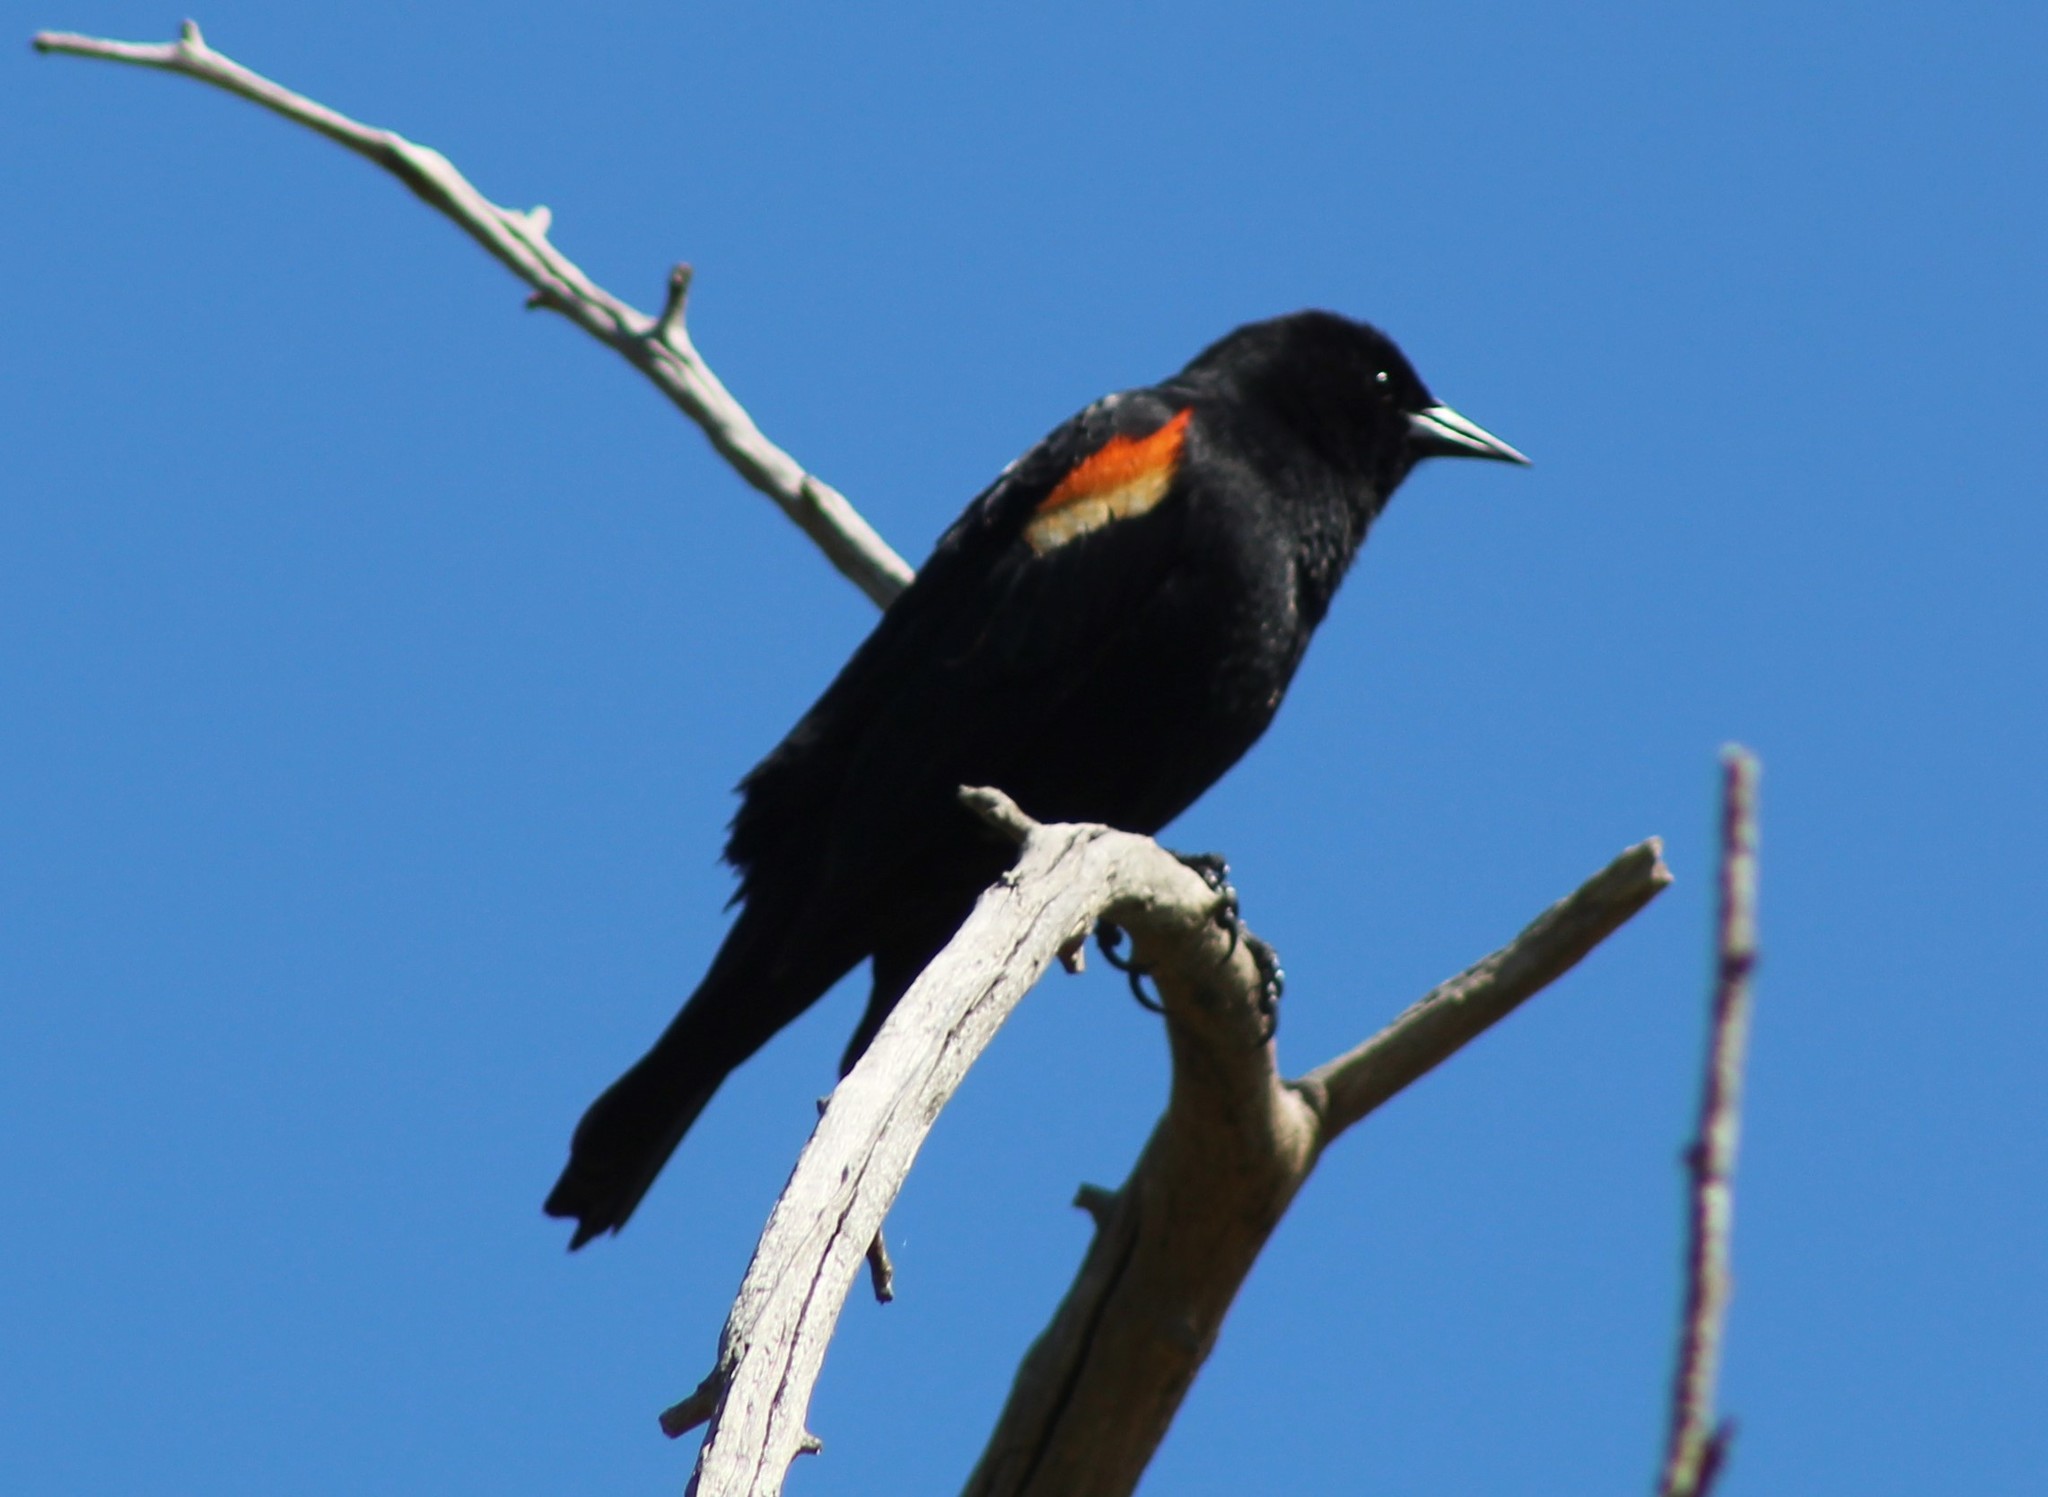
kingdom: Animalia
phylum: Chordata
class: Aves
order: Passeriformes
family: Icteridae
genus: Agelaius
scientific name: Agelaius phoeniceus
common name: Red-winged blackbird
